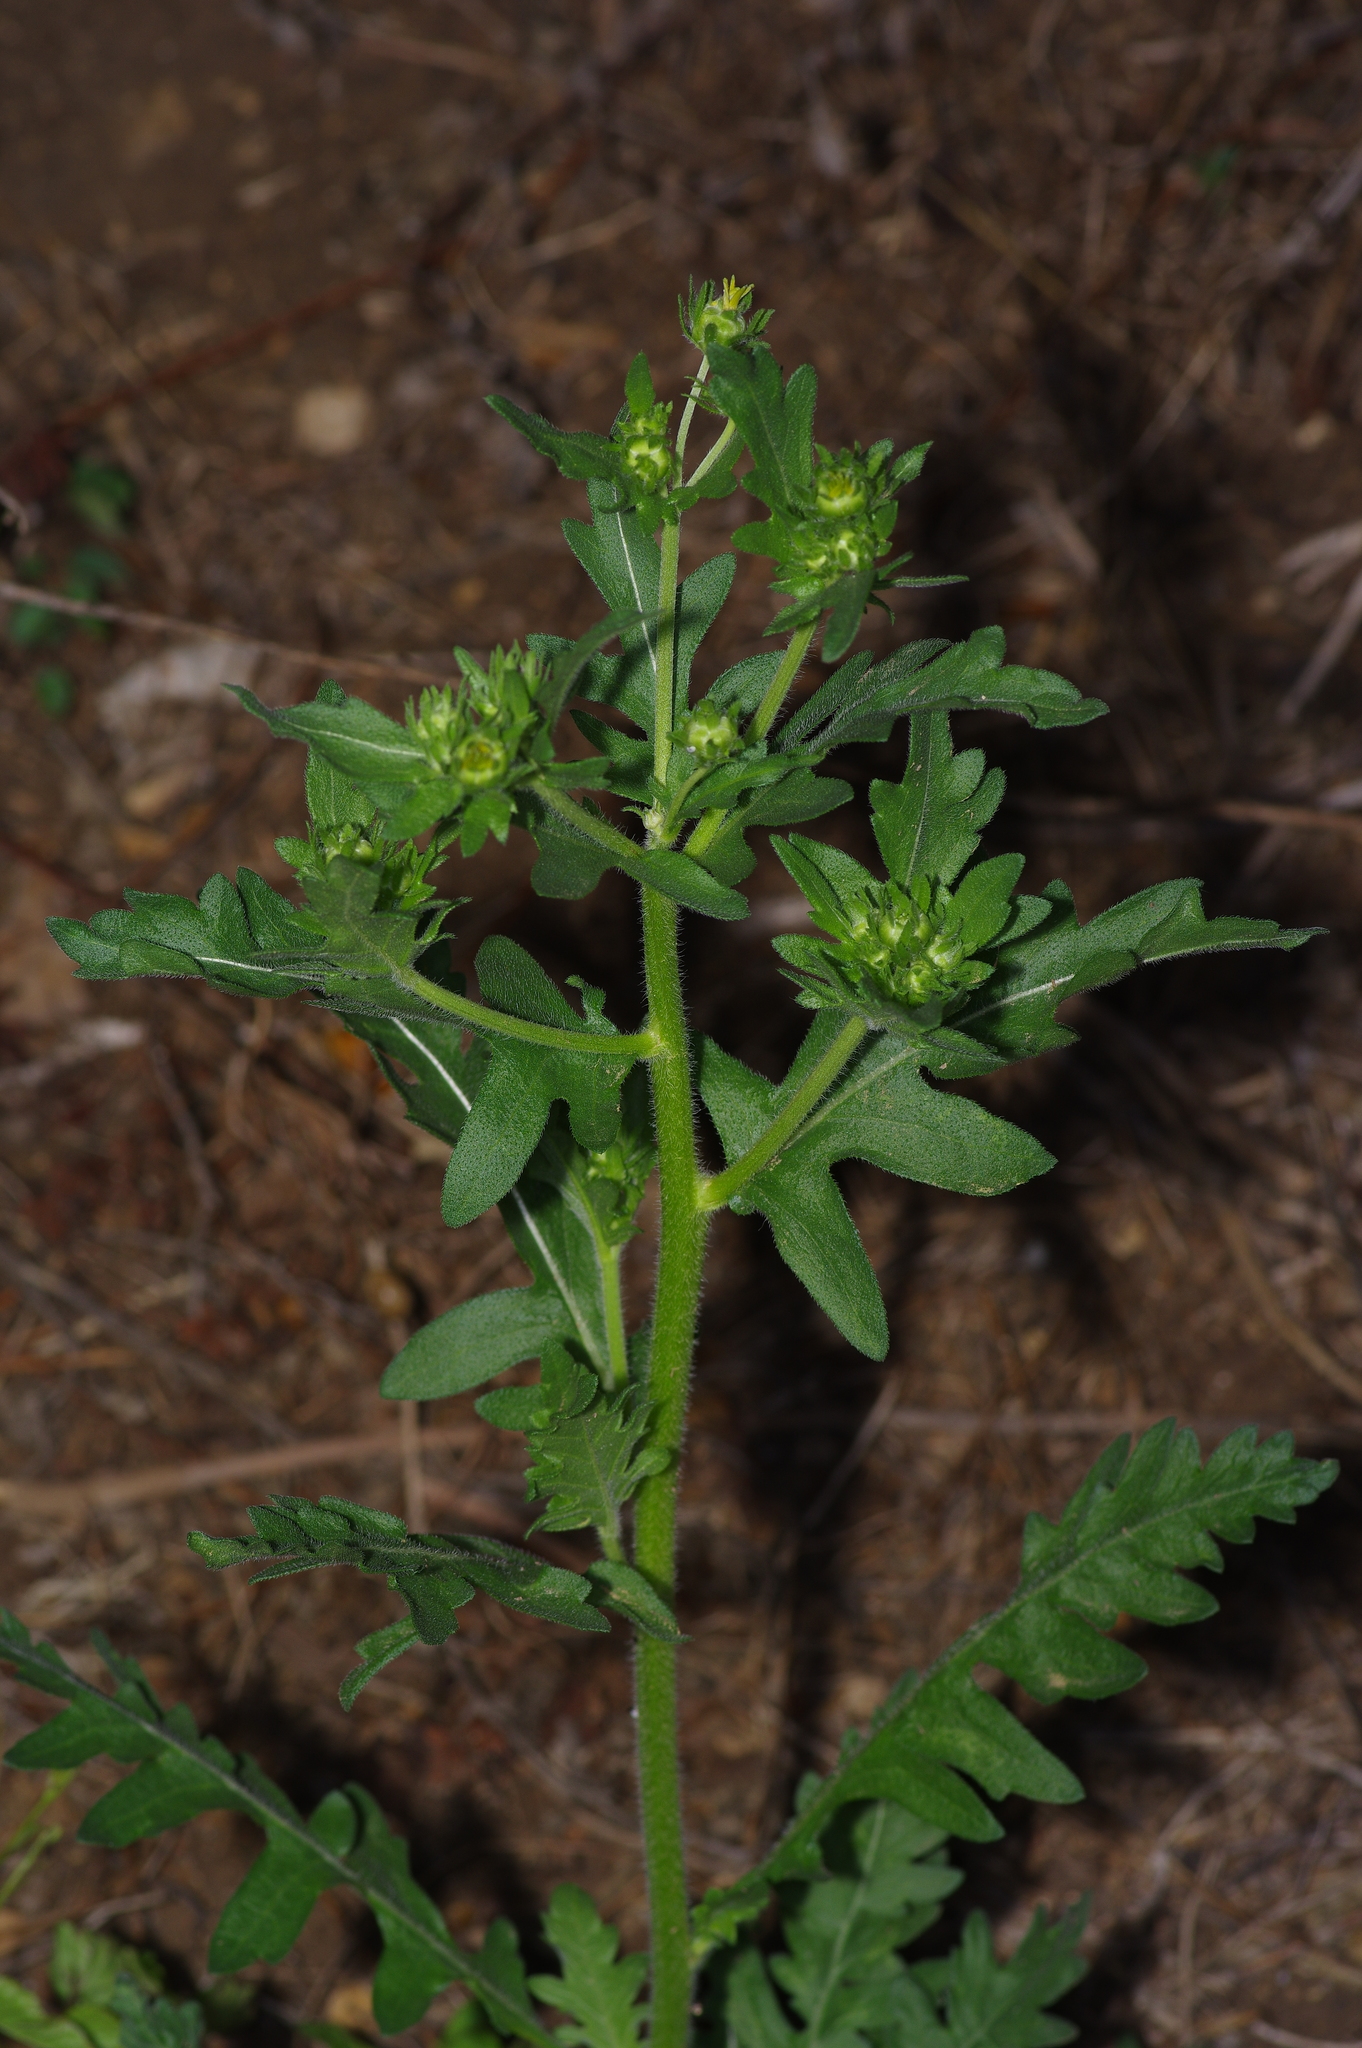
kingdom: Plantae
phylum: Tracheophyta
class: Magnoliopsida
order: Asterales
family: Asteraceae
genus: Engelmannia
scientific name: Engelmannia peristenia
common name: Engelmann's daisy
